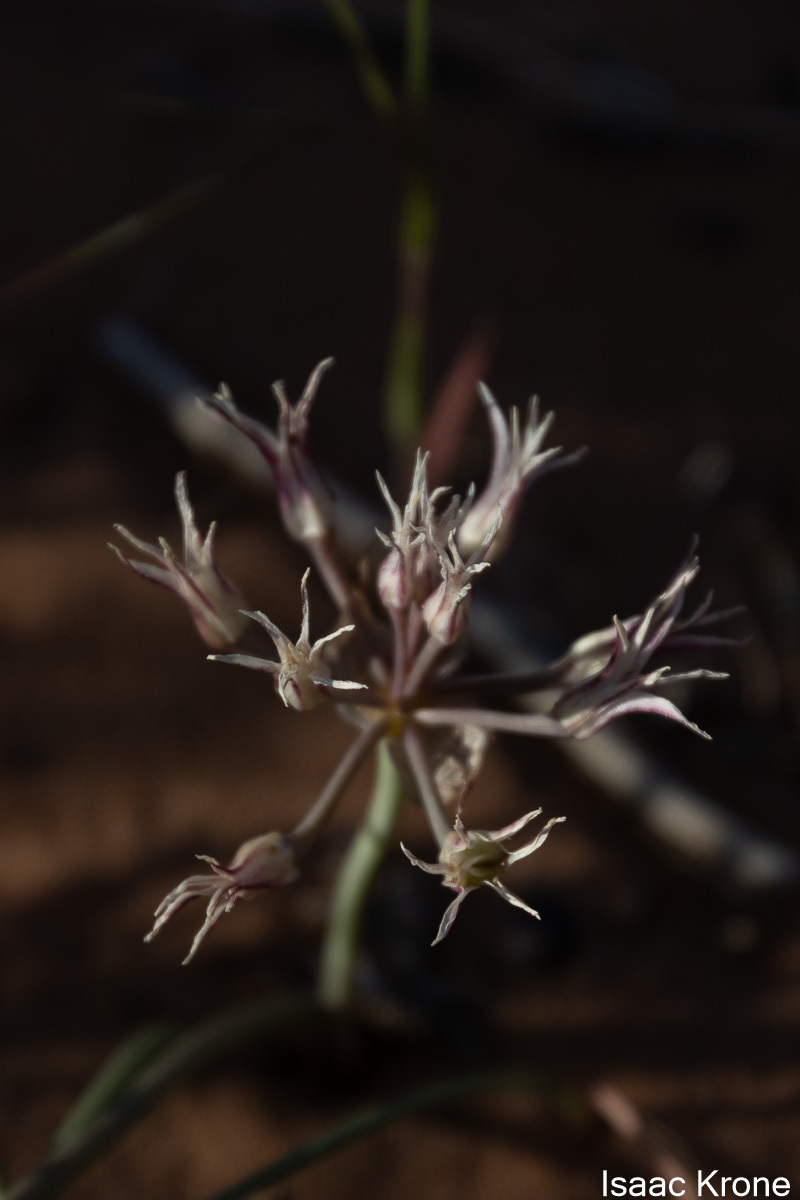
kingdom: Plantae
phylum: Tracheophyta
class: Liliopsida
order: Asparagales
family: Amaryllidaceae
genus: Allium
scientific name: Allium macropetalum
